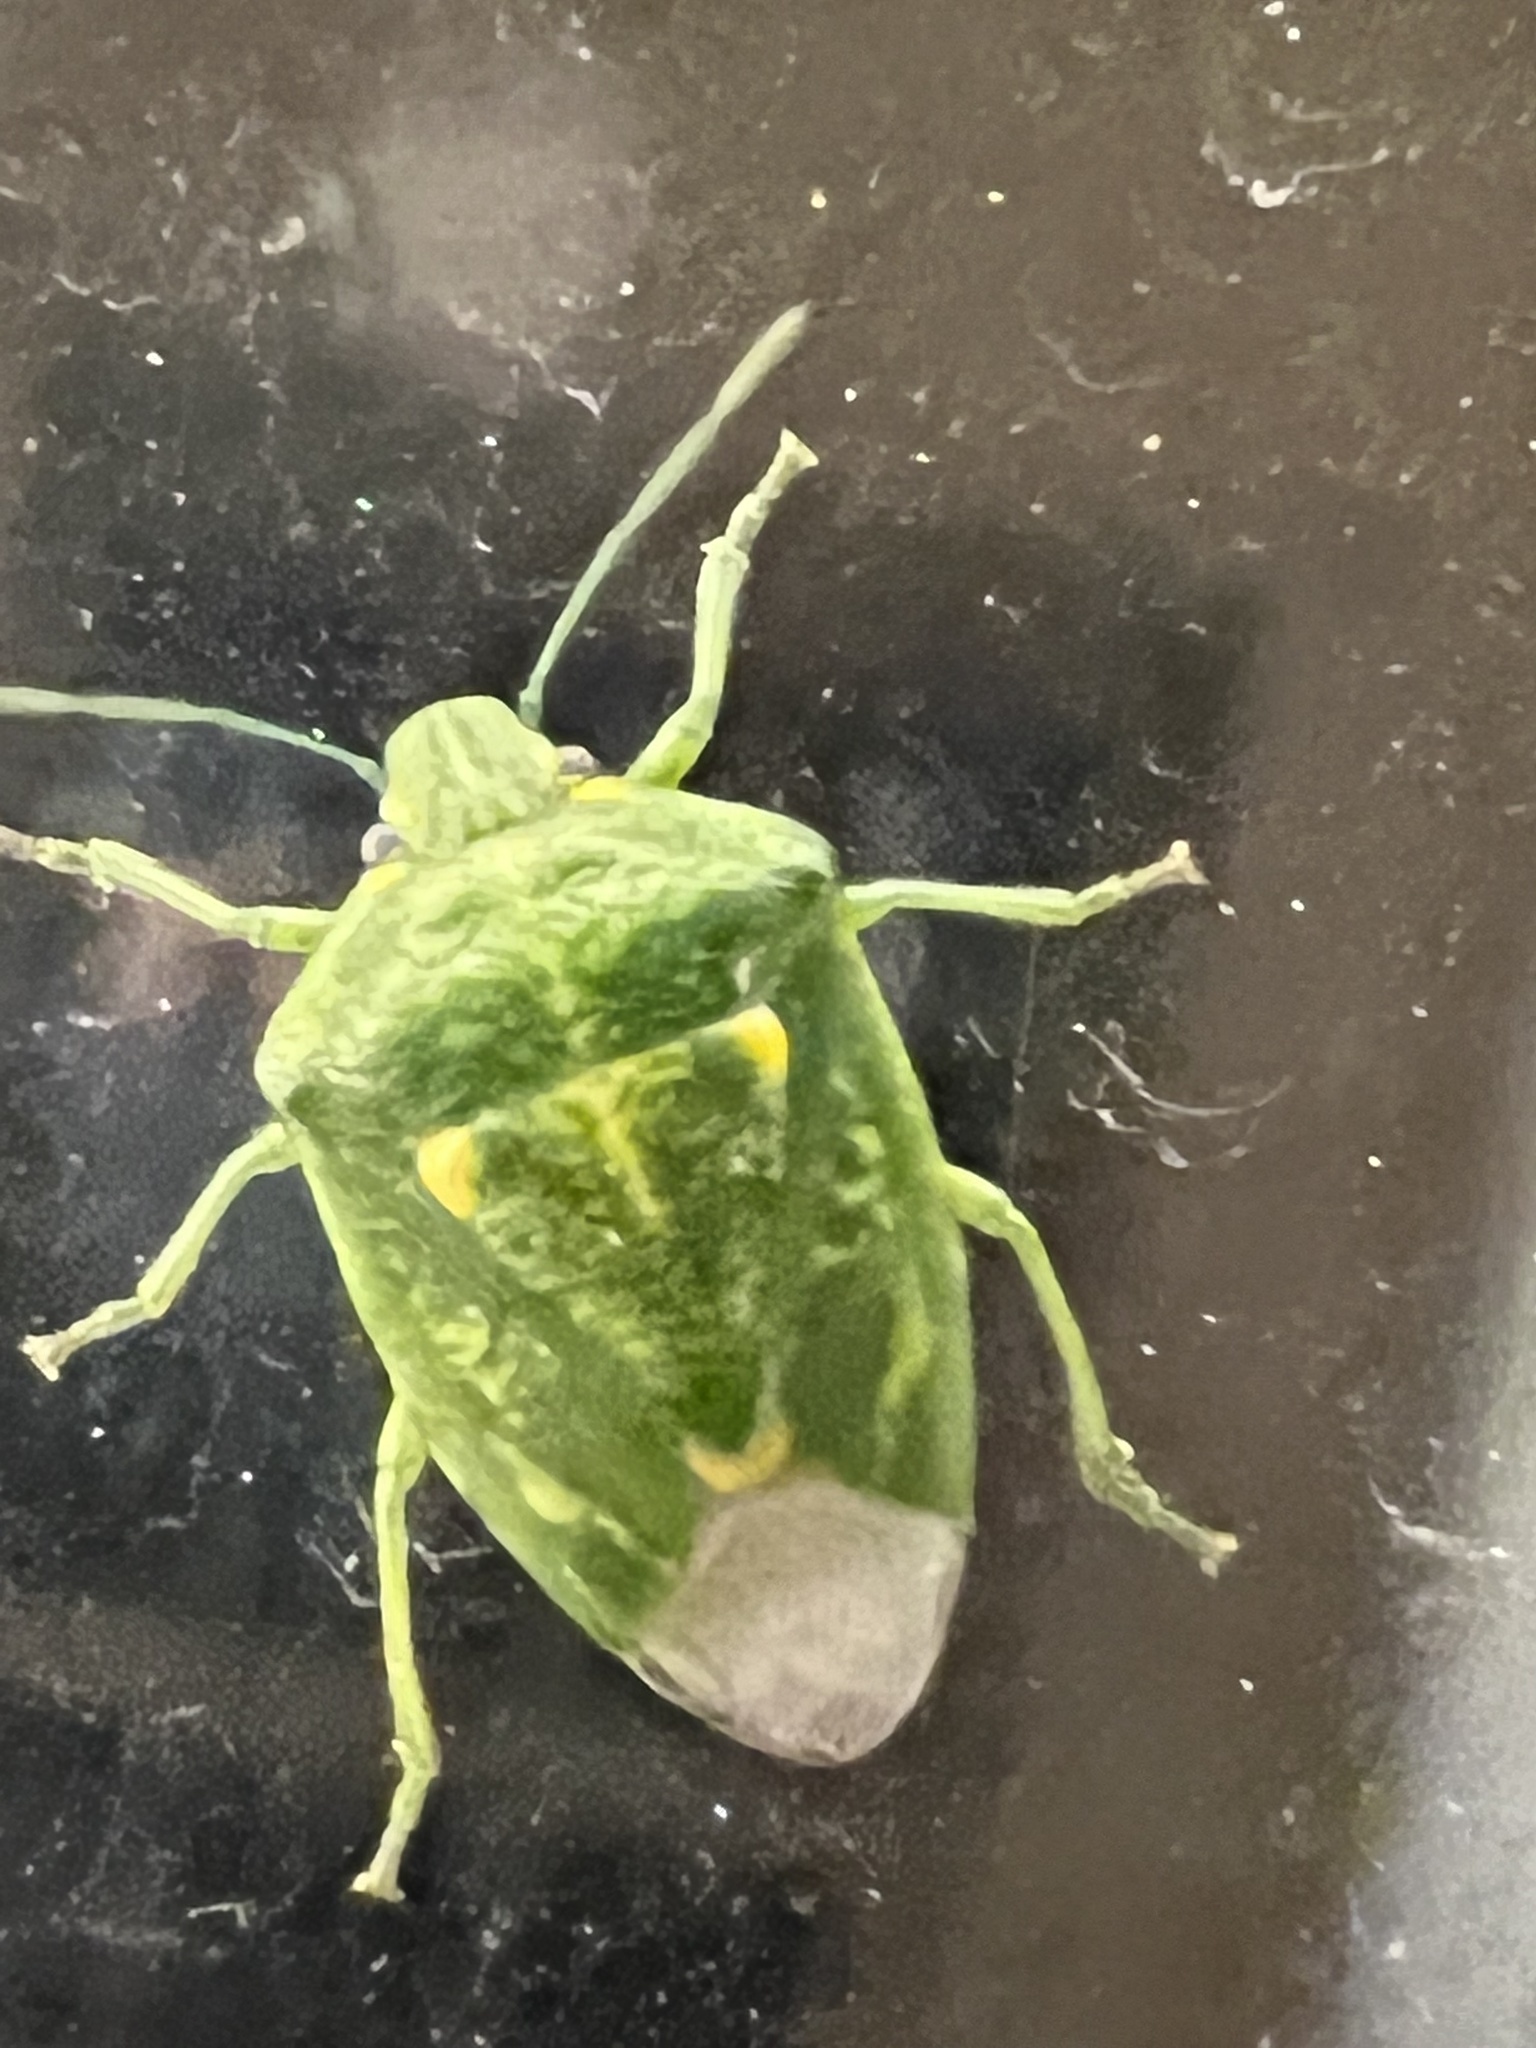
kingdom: Animalia
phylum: Arthropoda
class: Insecta
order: Hemiptera
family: Pentatomidae
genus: Banasa
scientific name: Banasa euchlora
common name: Cedar berry bug
